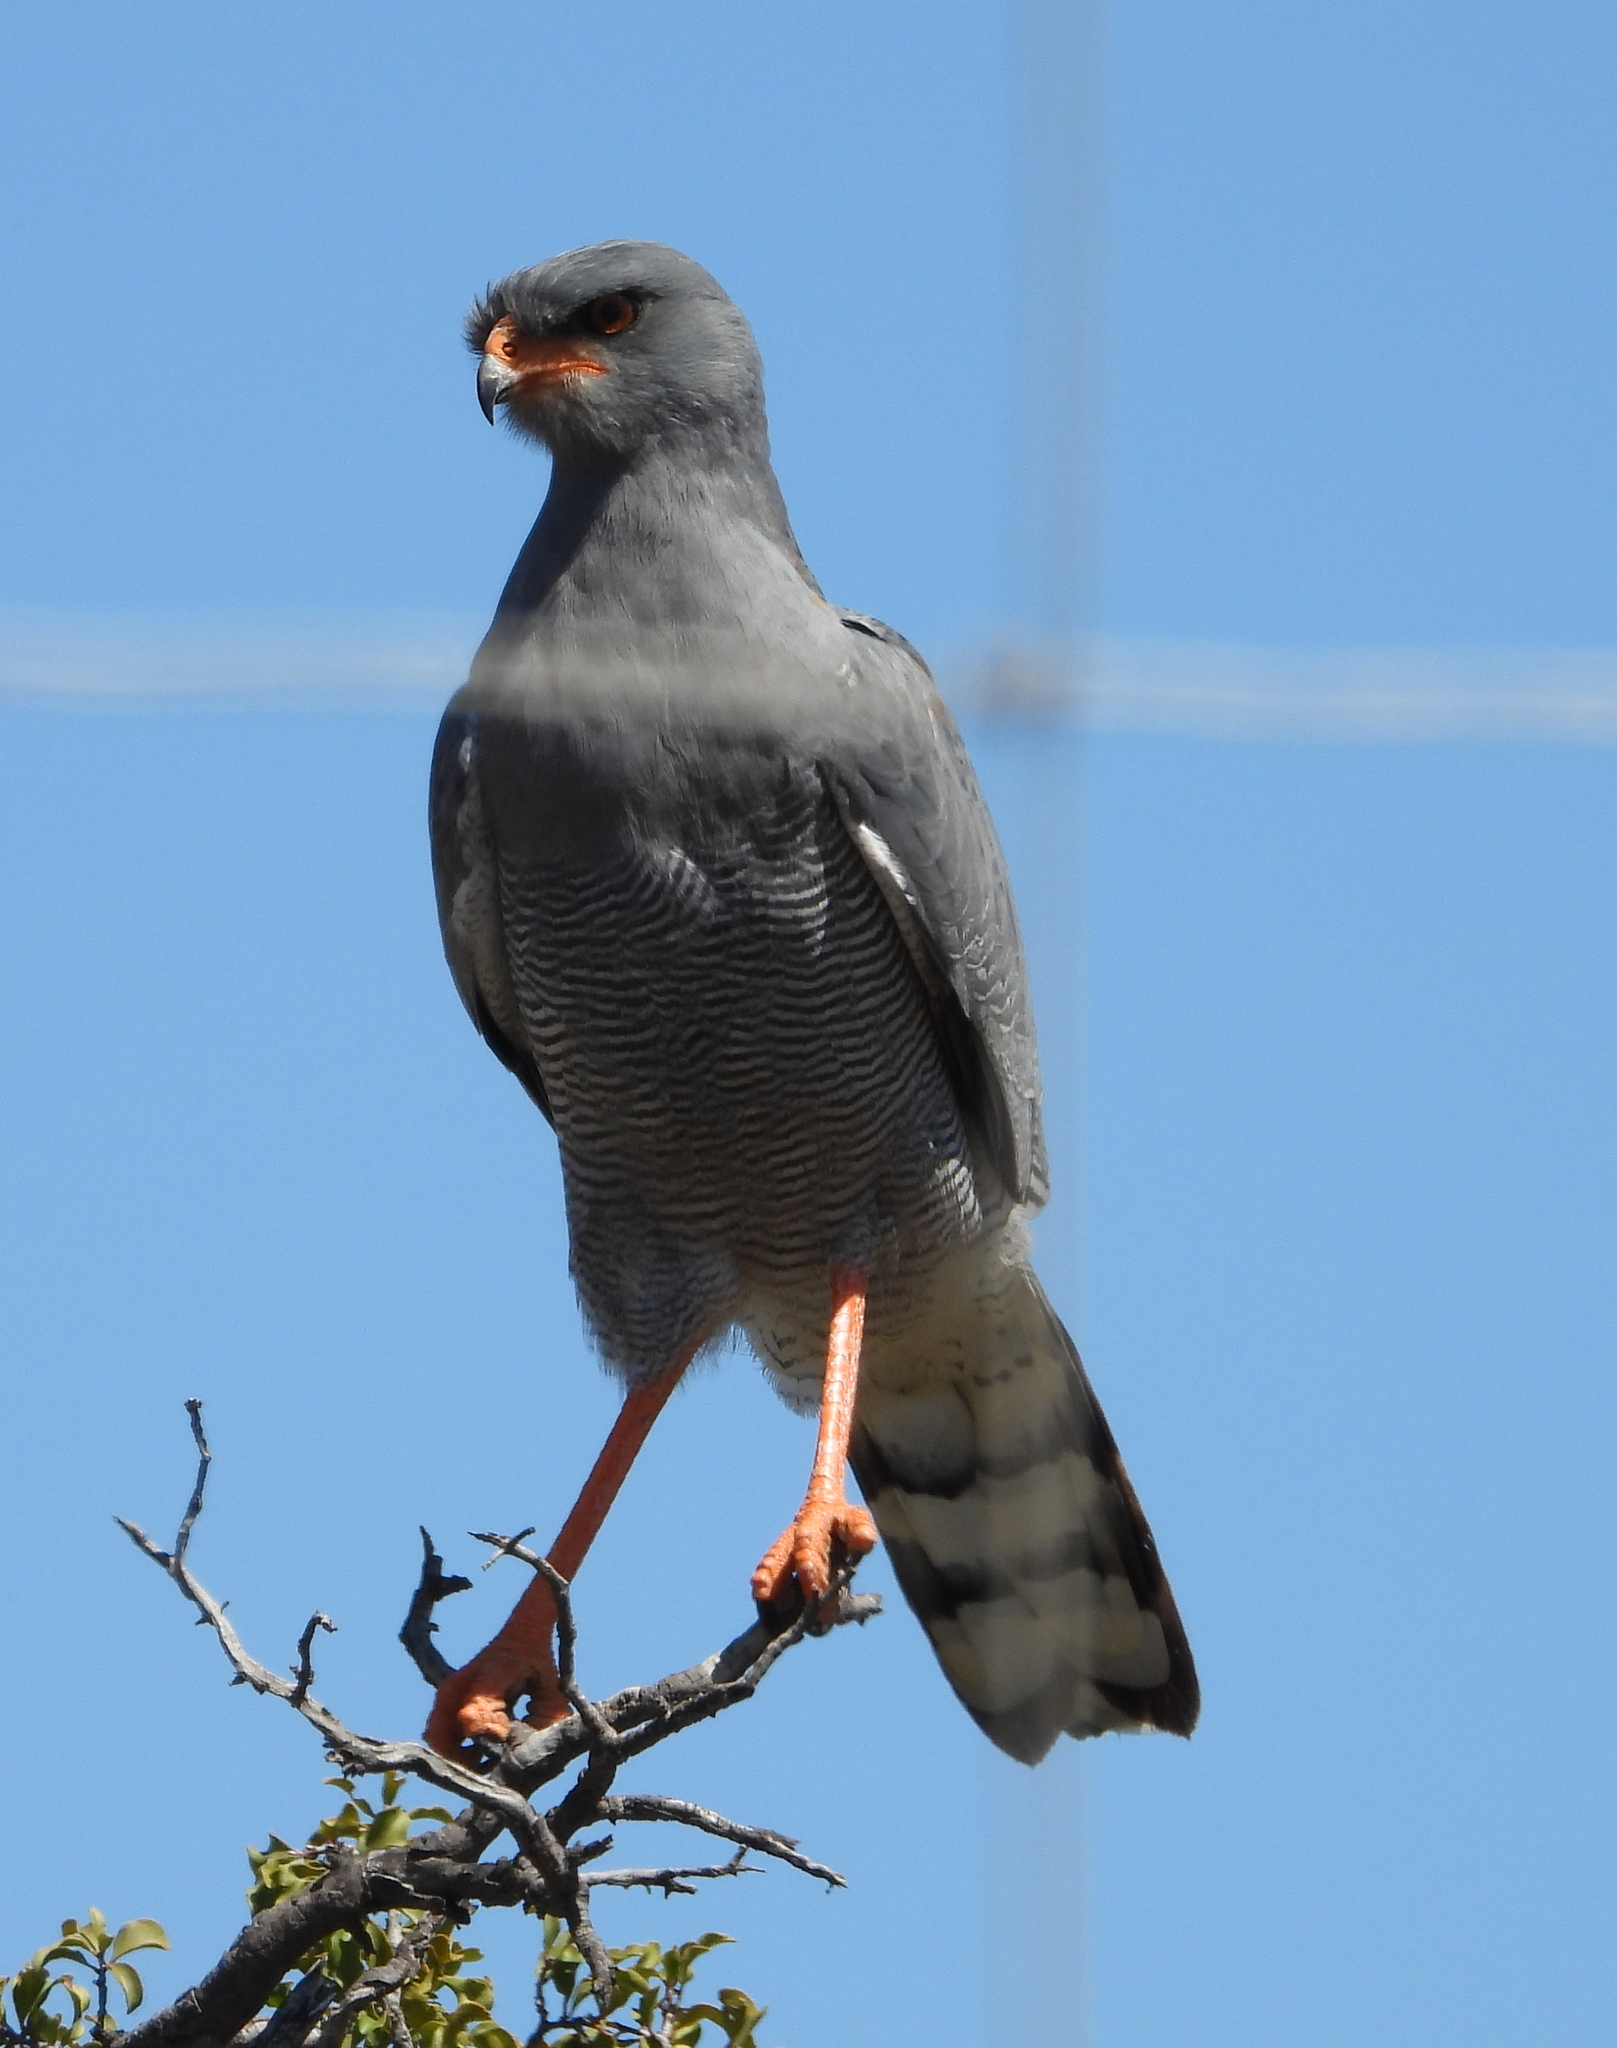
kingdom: Animalia
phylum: Chordata
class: Aves
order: Accipitriformes
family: Accipitridae
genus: Melierax
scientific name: Melierax canorus
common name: Pale chanting-goshawk
